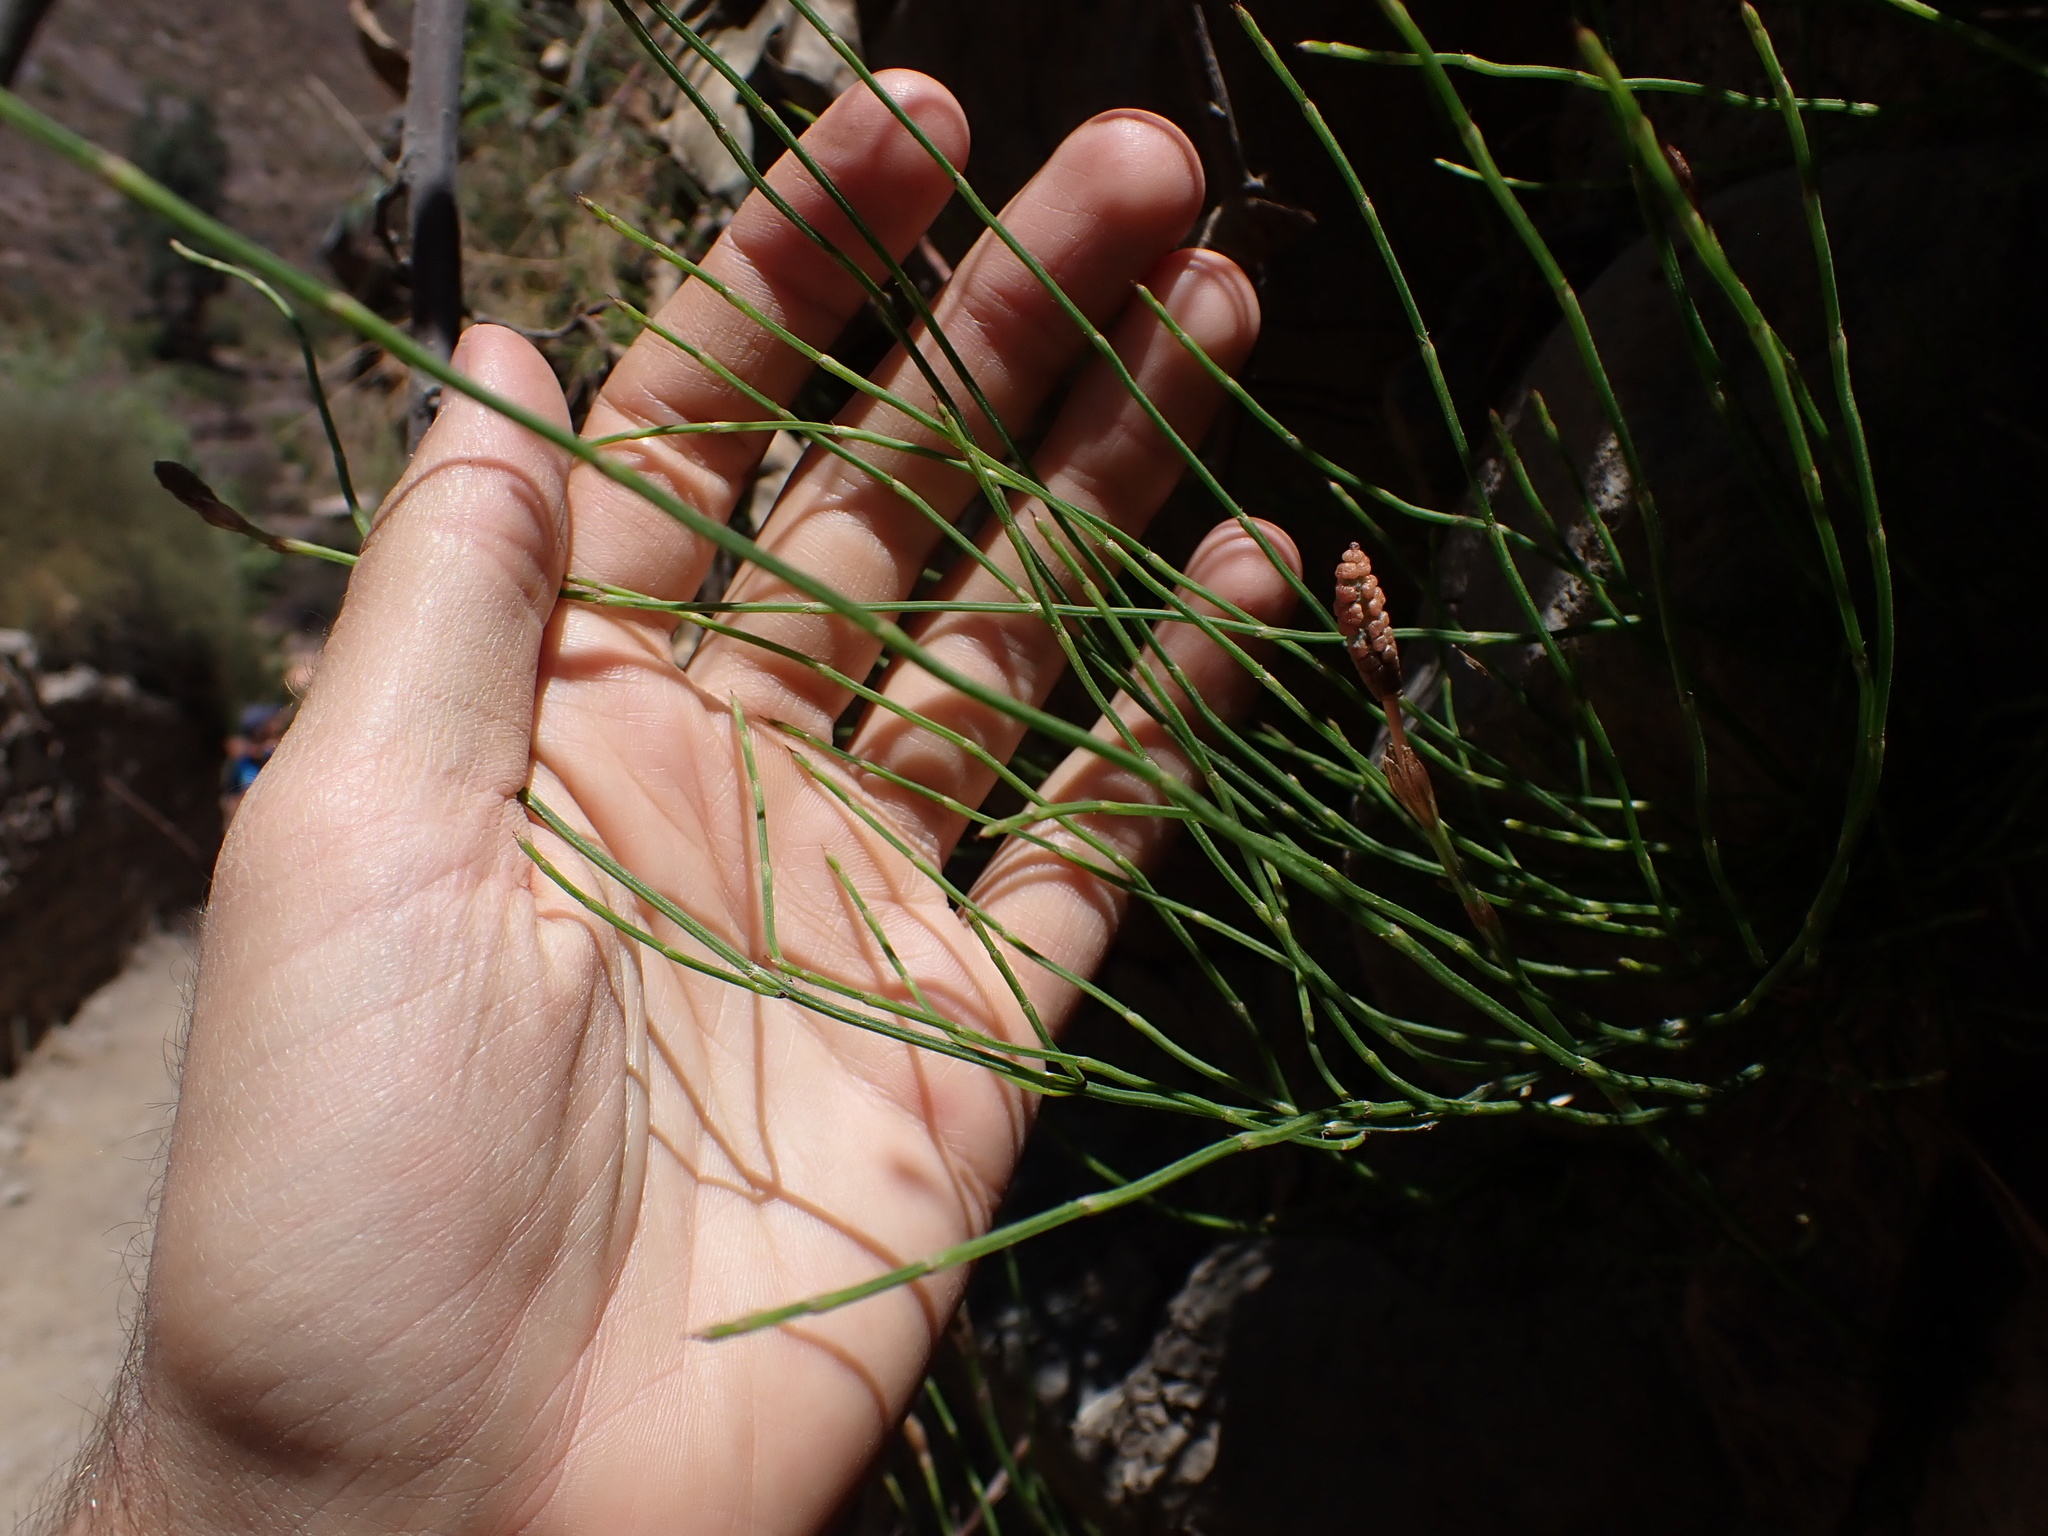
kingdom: Plantae
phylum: Tracheophyta
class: Polypodiopsida
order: Equisetales
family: Equisetaceae
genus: Equisetum
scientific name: Equisetum bogotense
